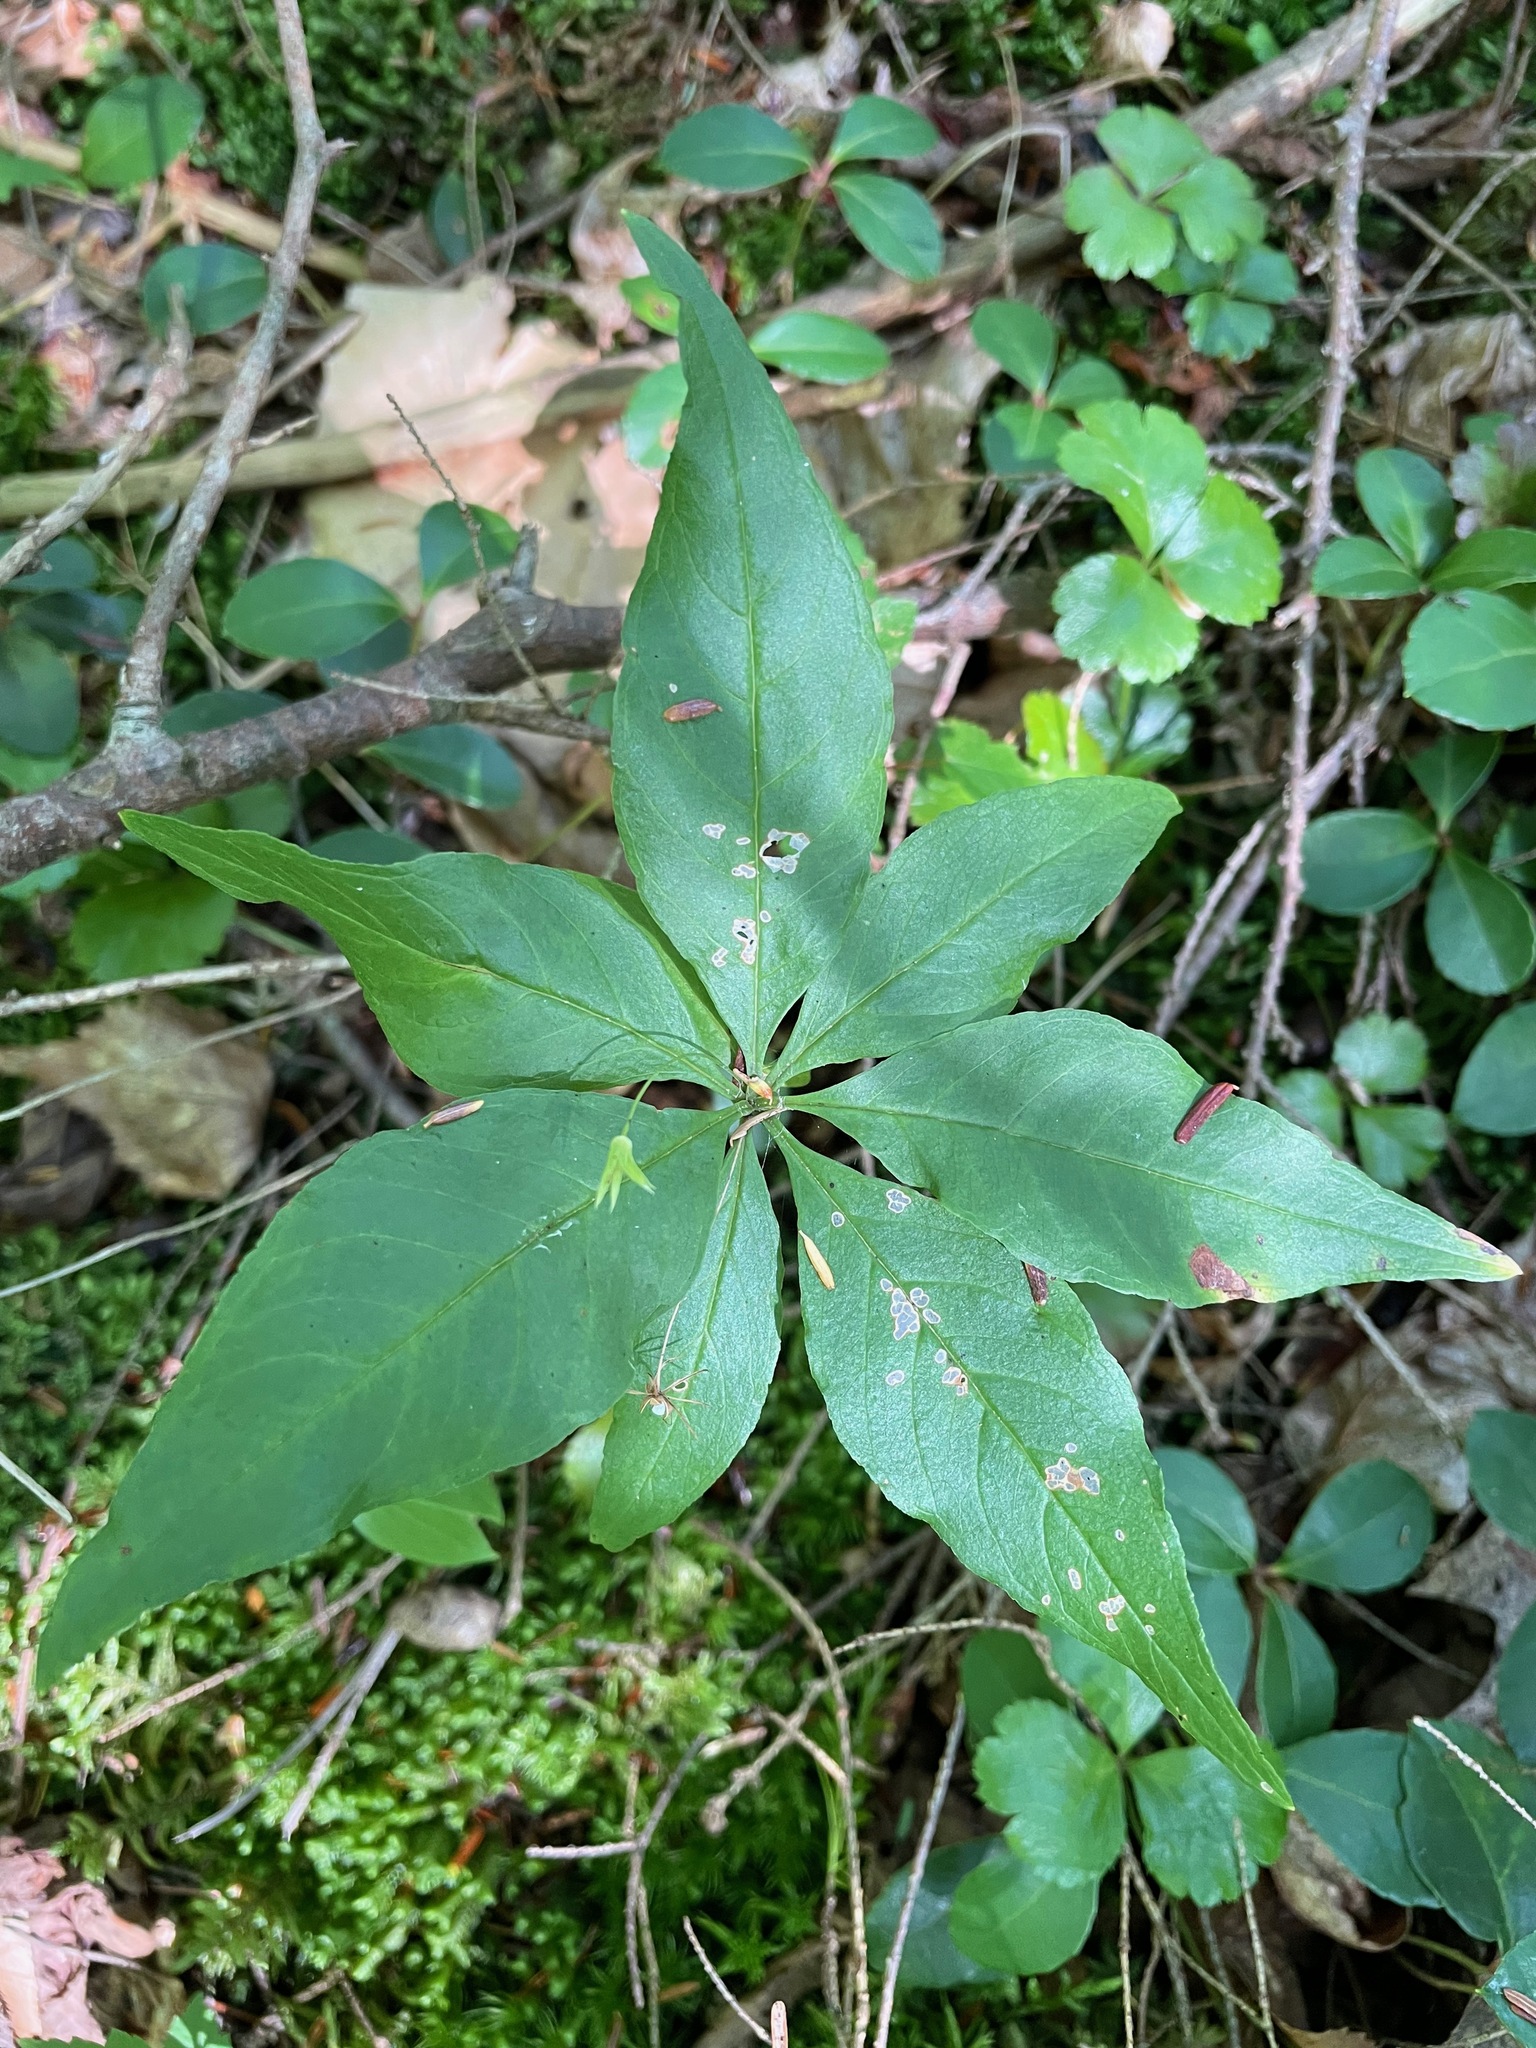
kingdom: Plantae
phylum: Tracheophyta
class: Magnoliopsida
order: Ericales
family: Primulaceae
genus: Lysimachia
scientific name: Lysimachia borealis
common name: American starflower
